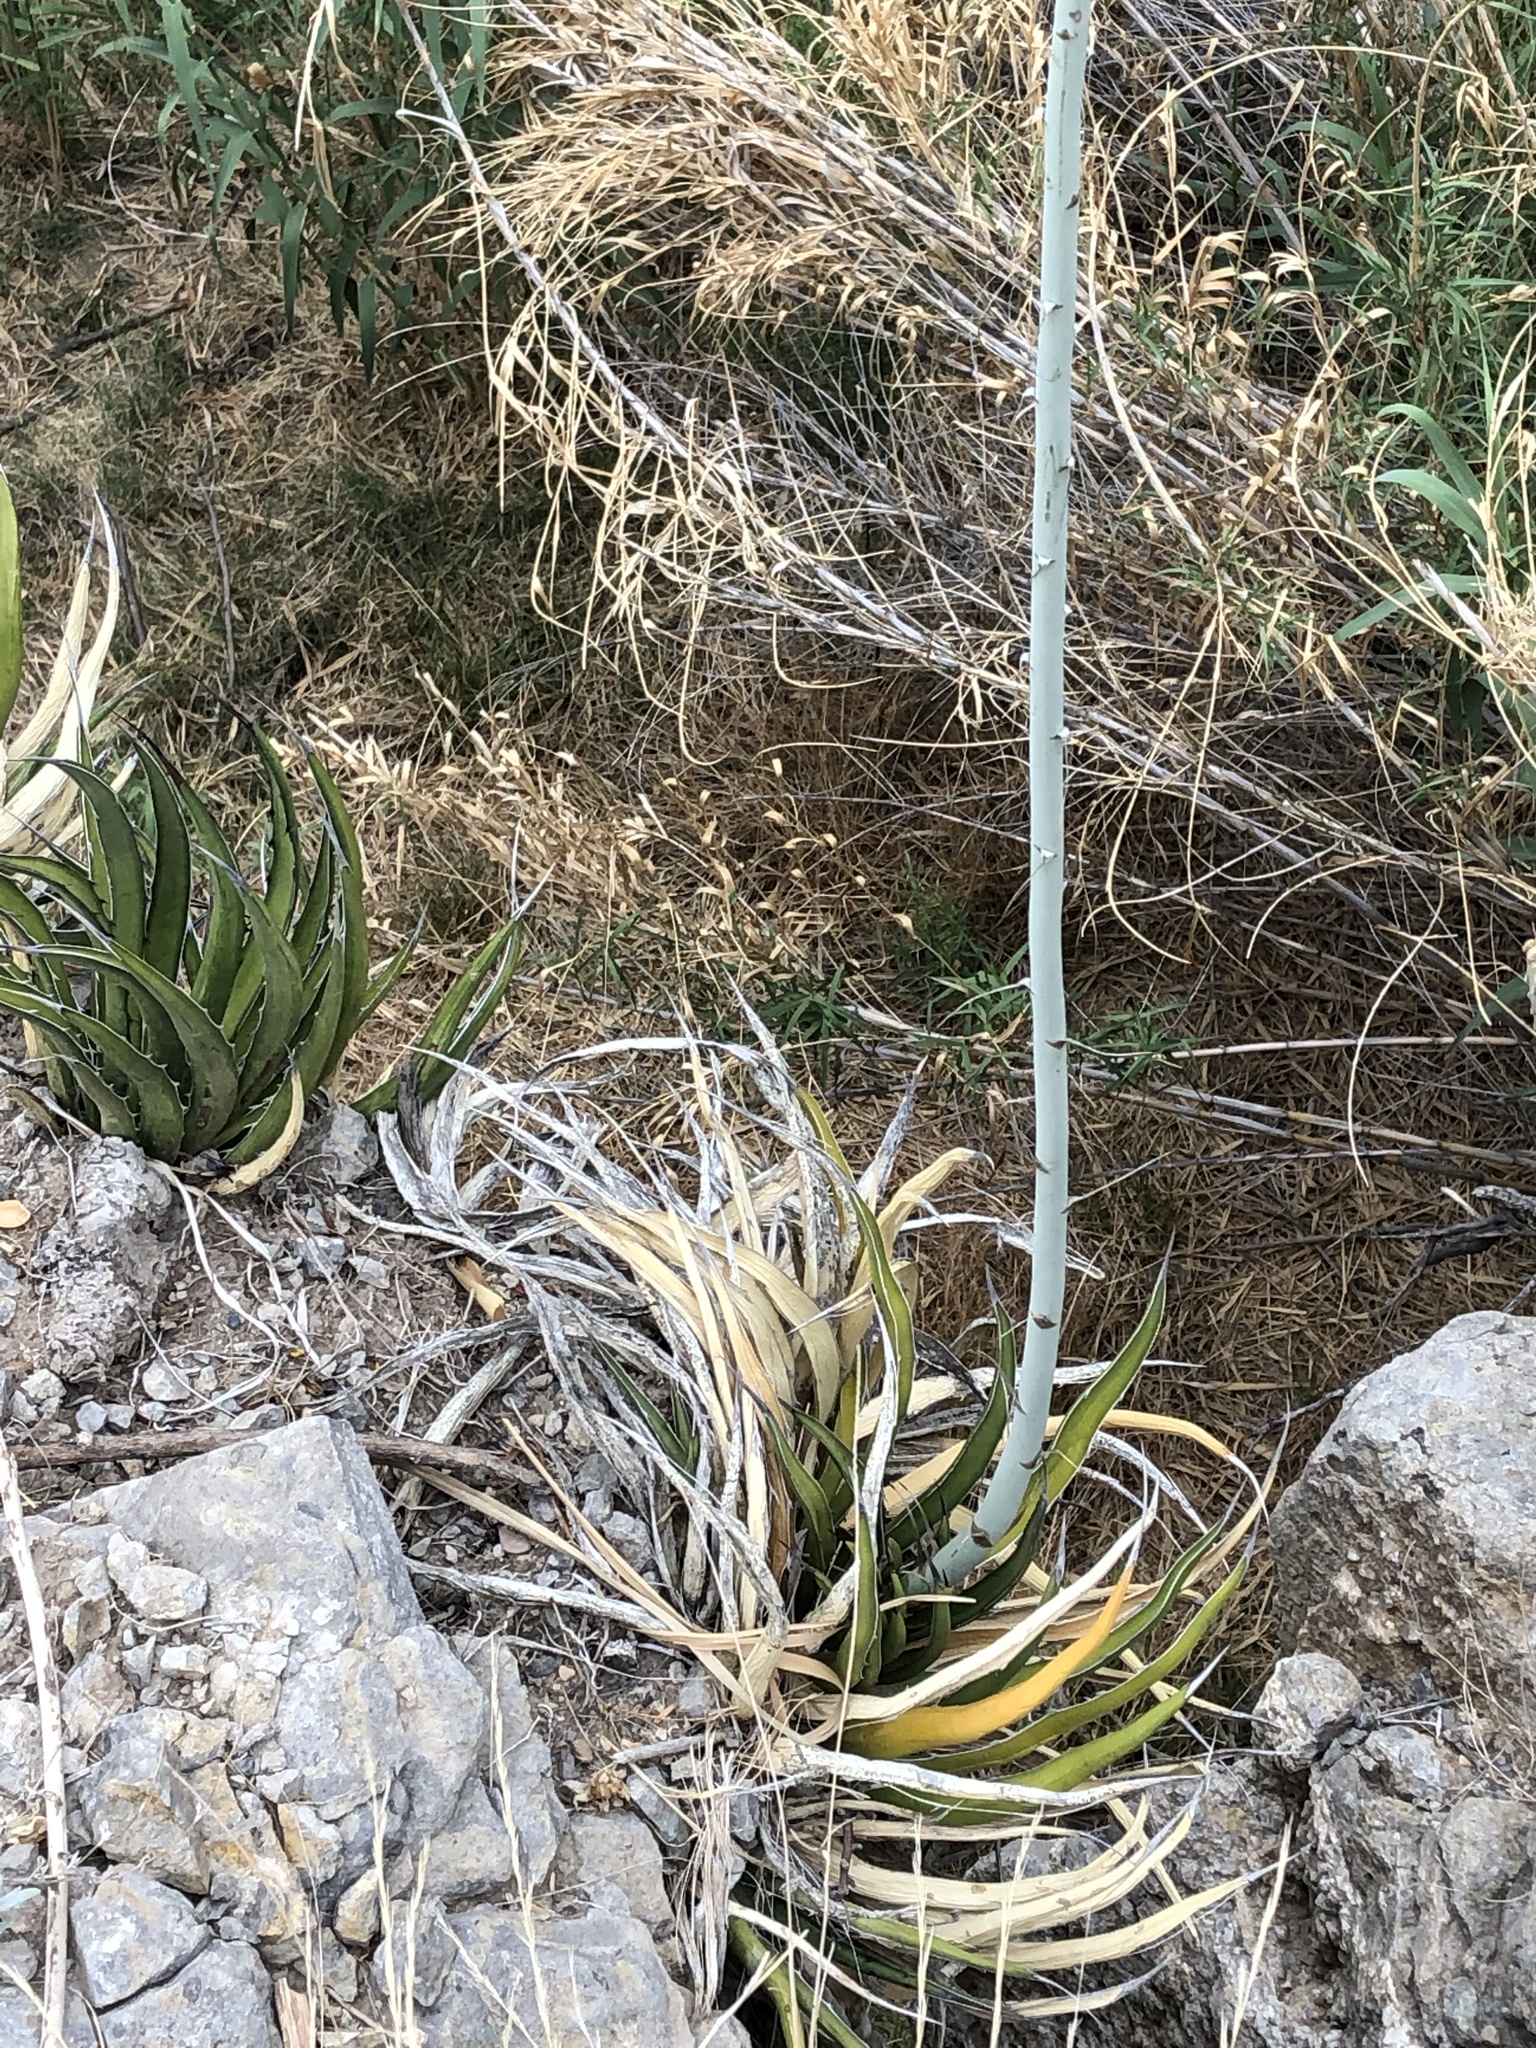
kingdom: Plantae
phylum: Tracheophyta
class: Liliopsida
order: Asparagales
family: Asparagaceae
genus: Agave
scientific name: Agave lechuguilla
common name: Lecheguilla agave
